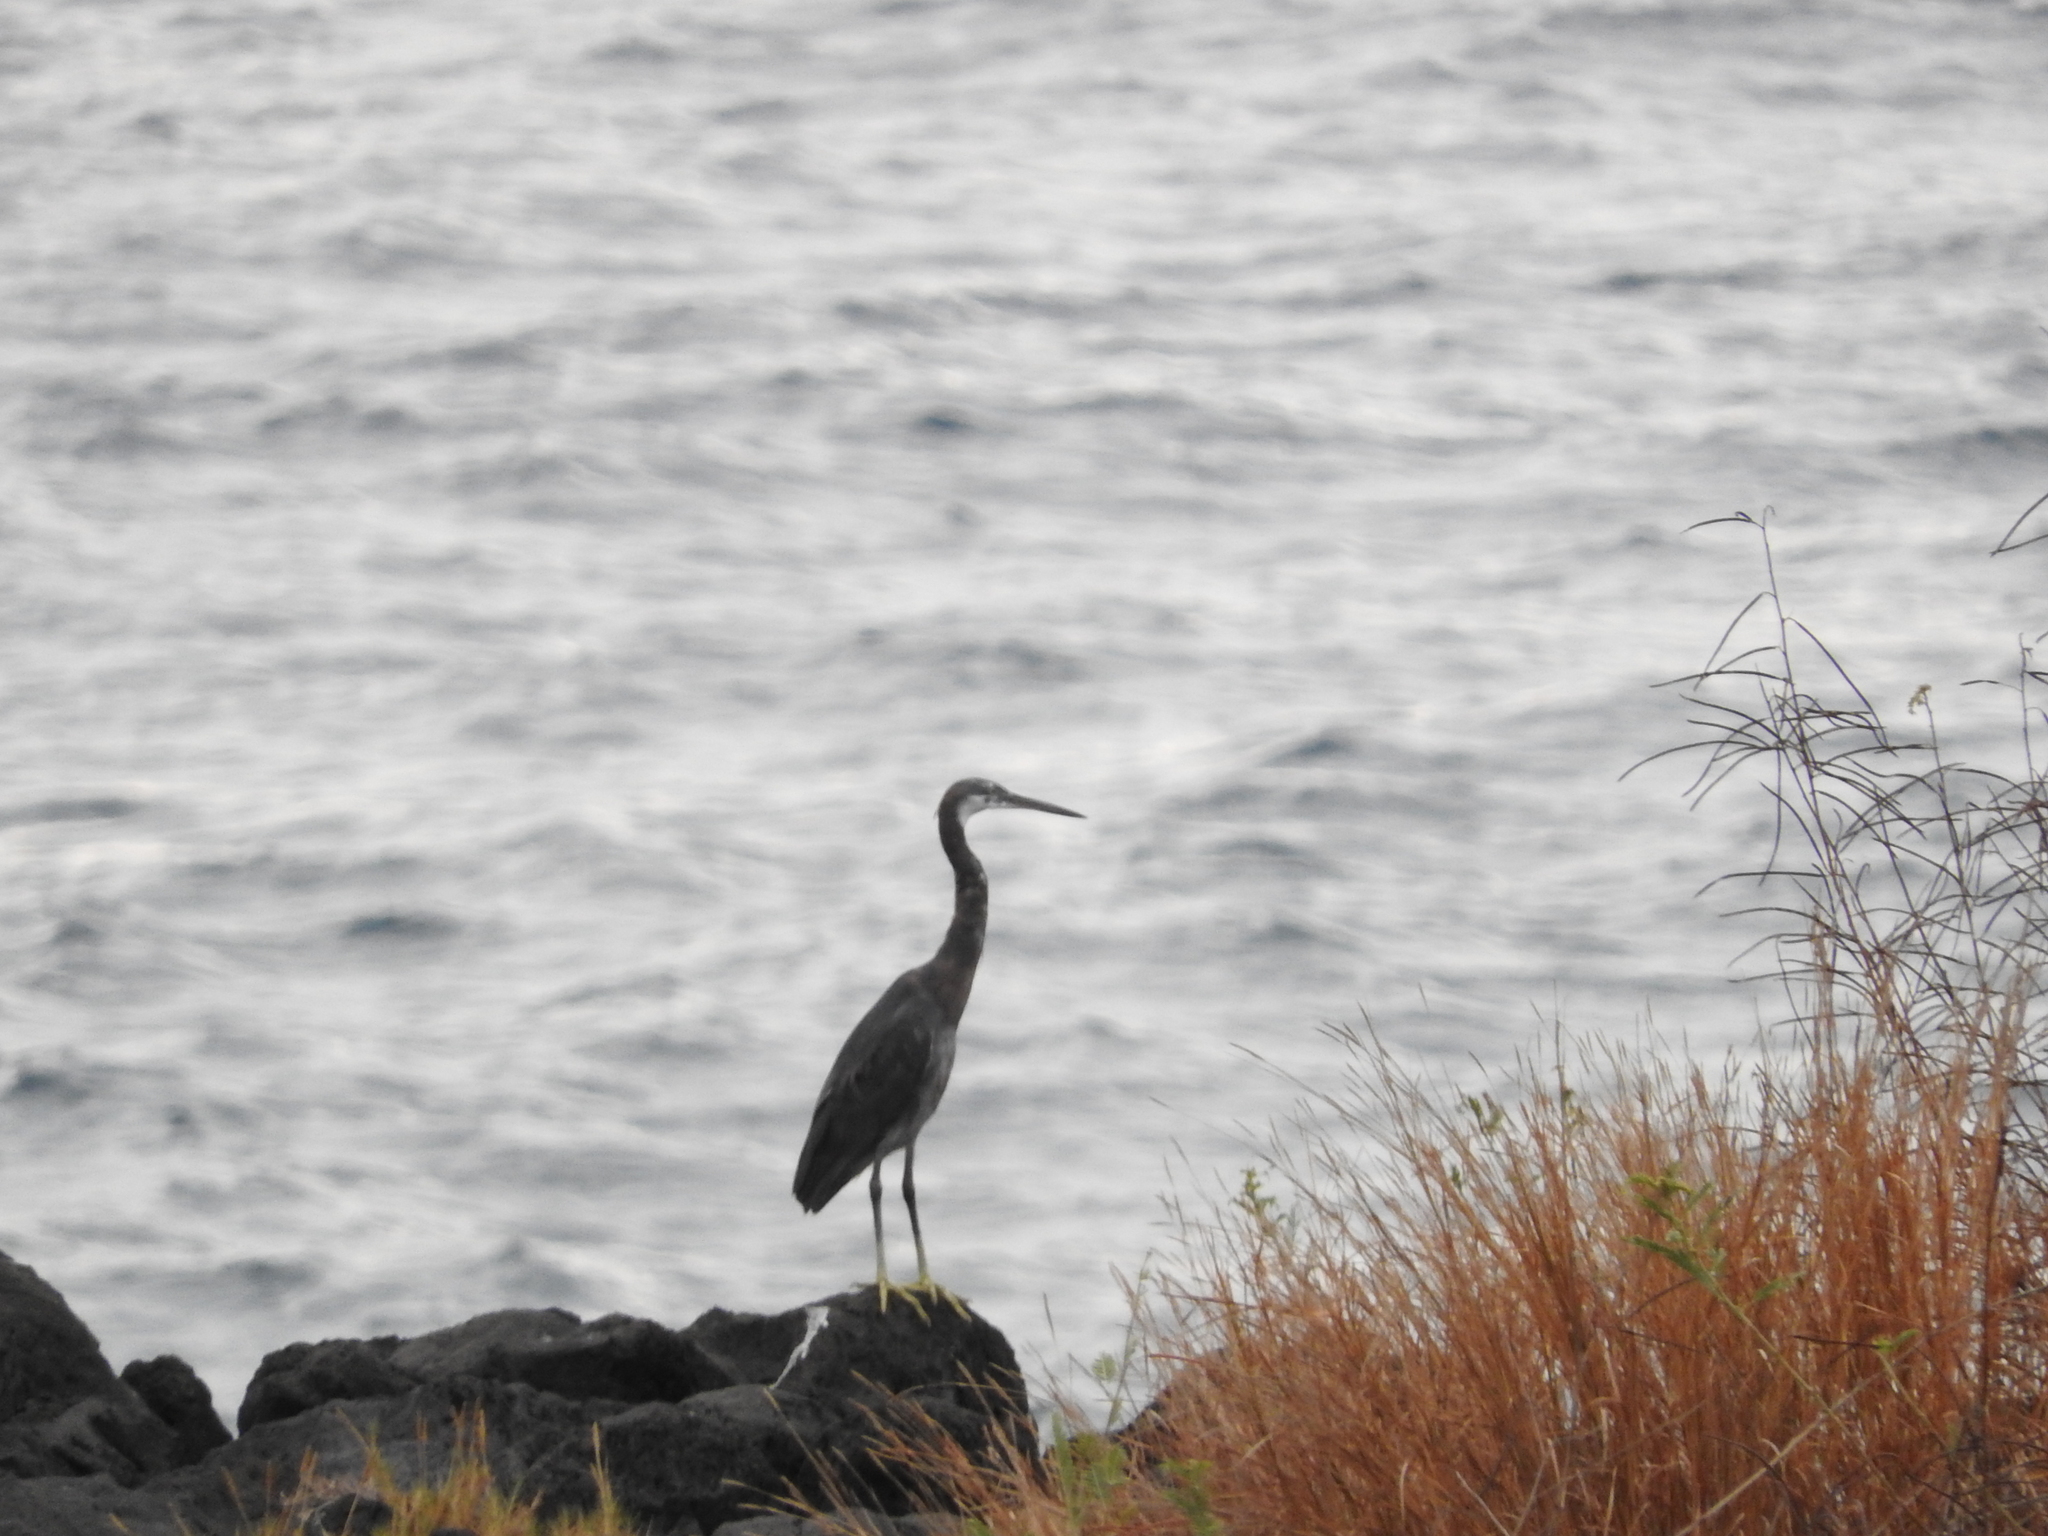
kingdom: Animalia
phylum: Chordata
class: Aves
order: Pelecaniformes
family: Ardeidae
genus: Egretta
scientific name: Egretta gularis
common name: Western reef-heron
